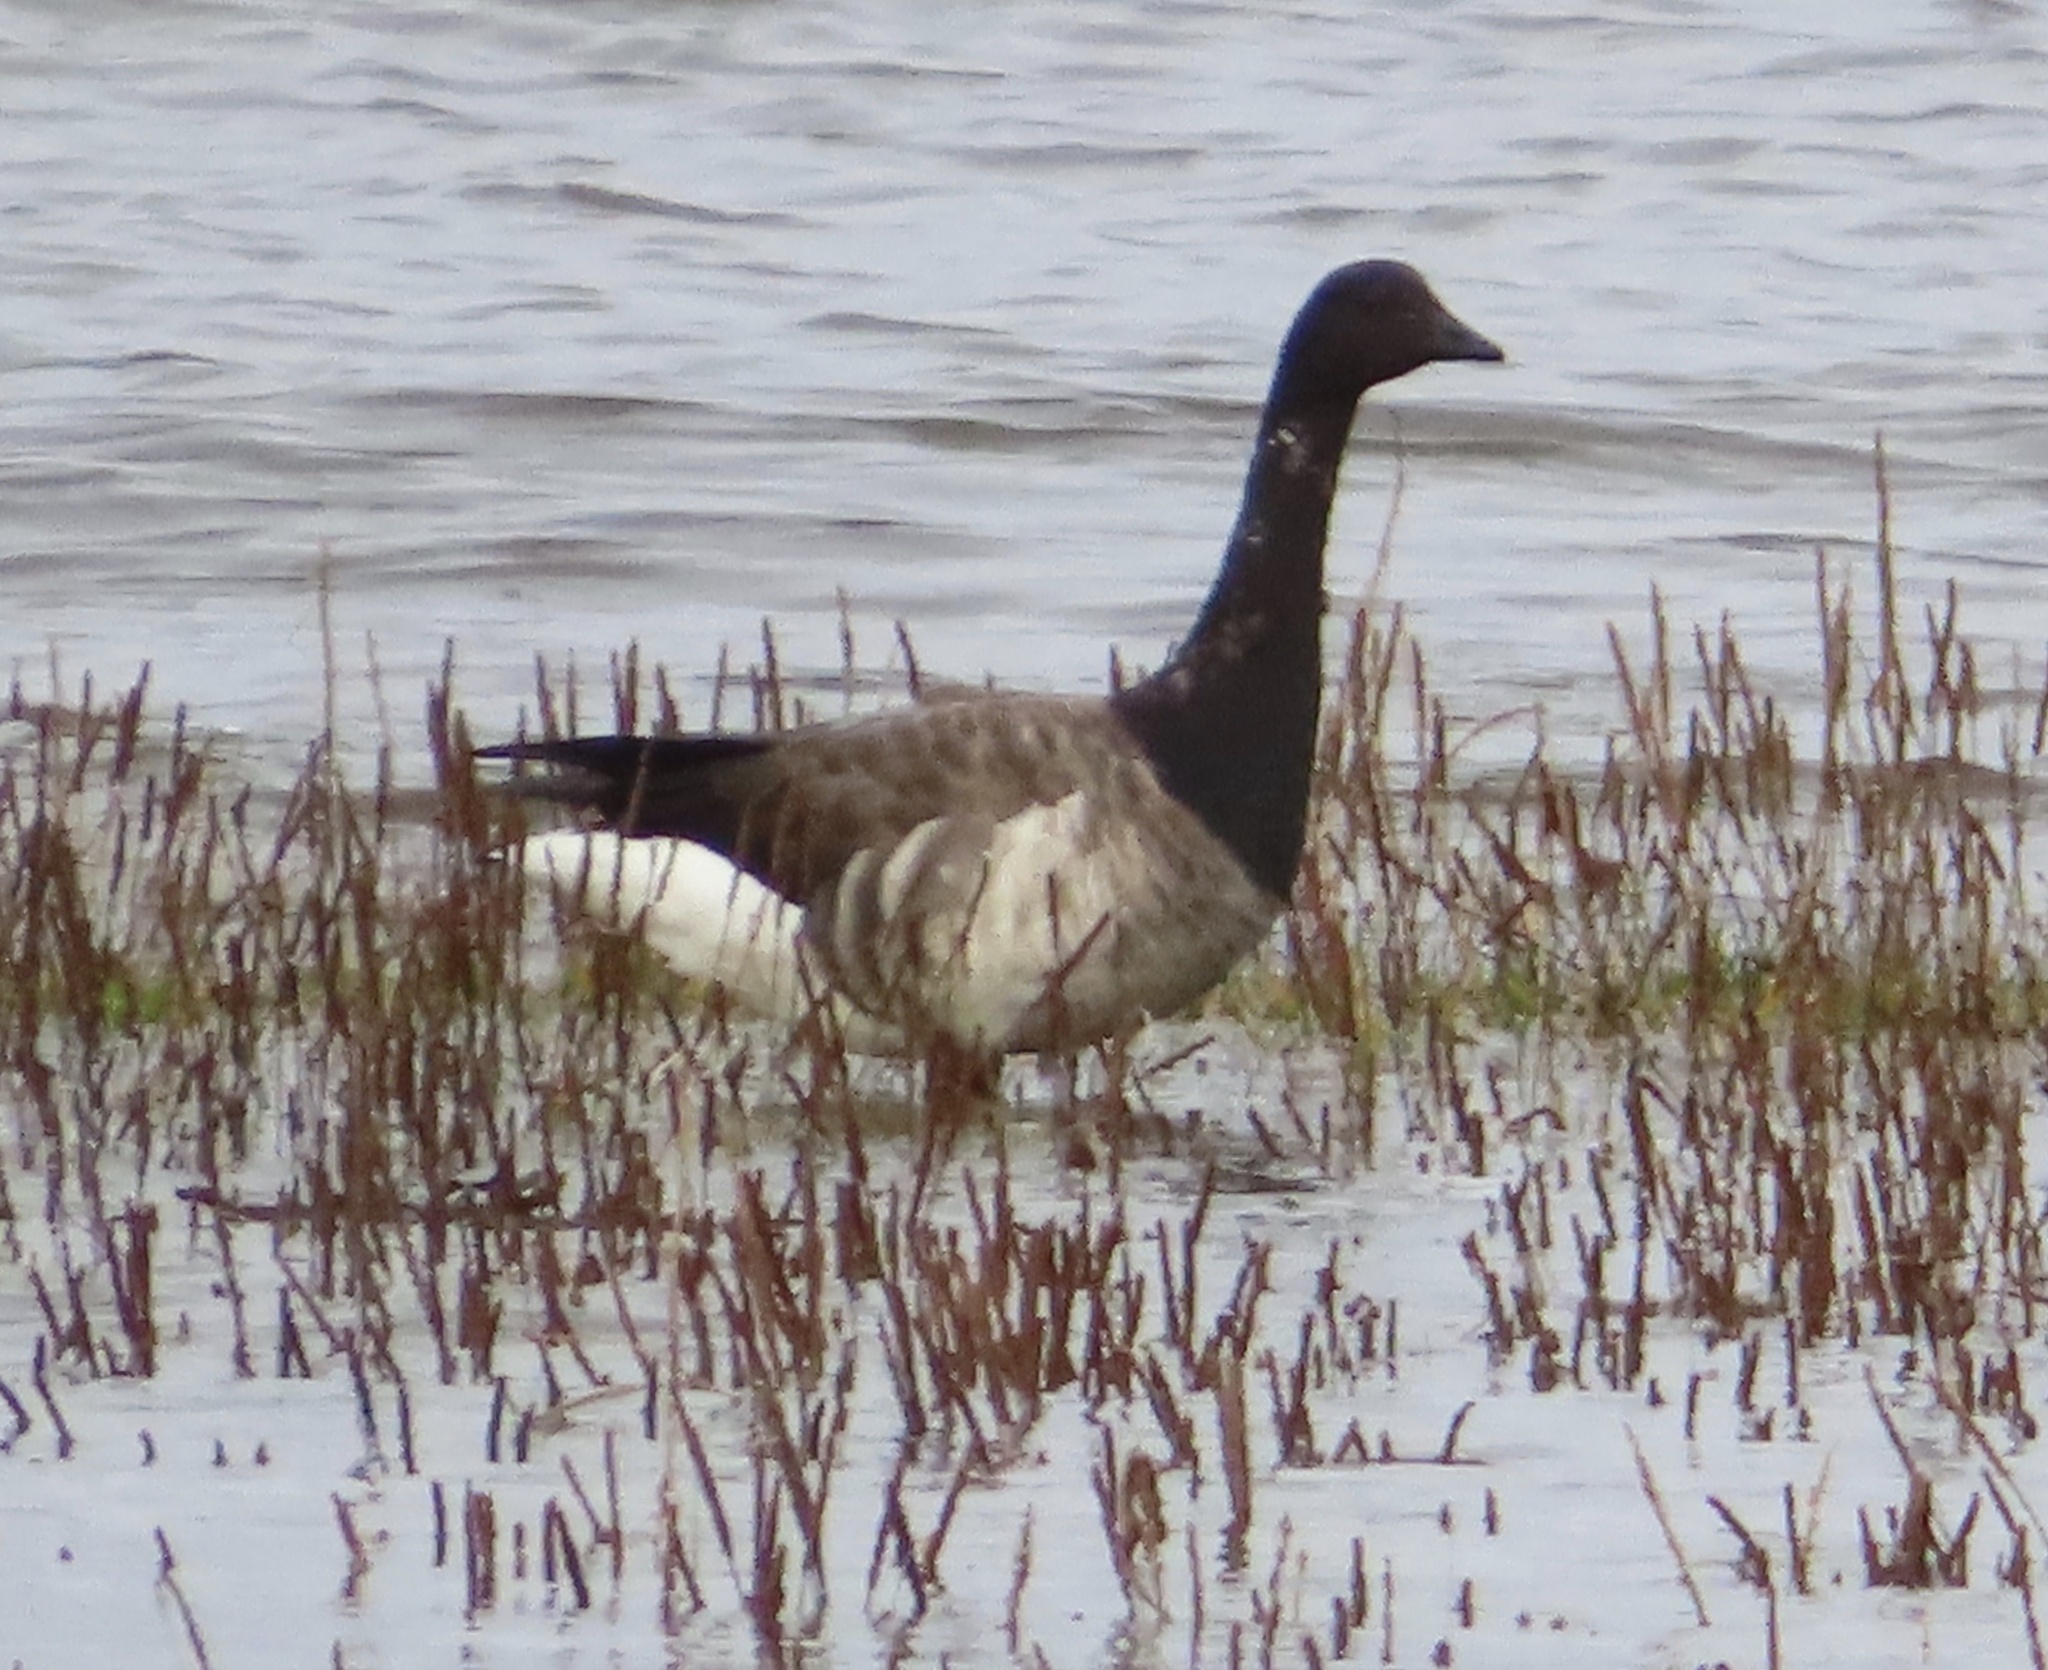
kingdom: Animalia
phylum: Chordata
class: Aves
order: Anseriformes
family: Anatidae
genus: Branta
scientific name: Branta bernicla
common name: Brant goose
